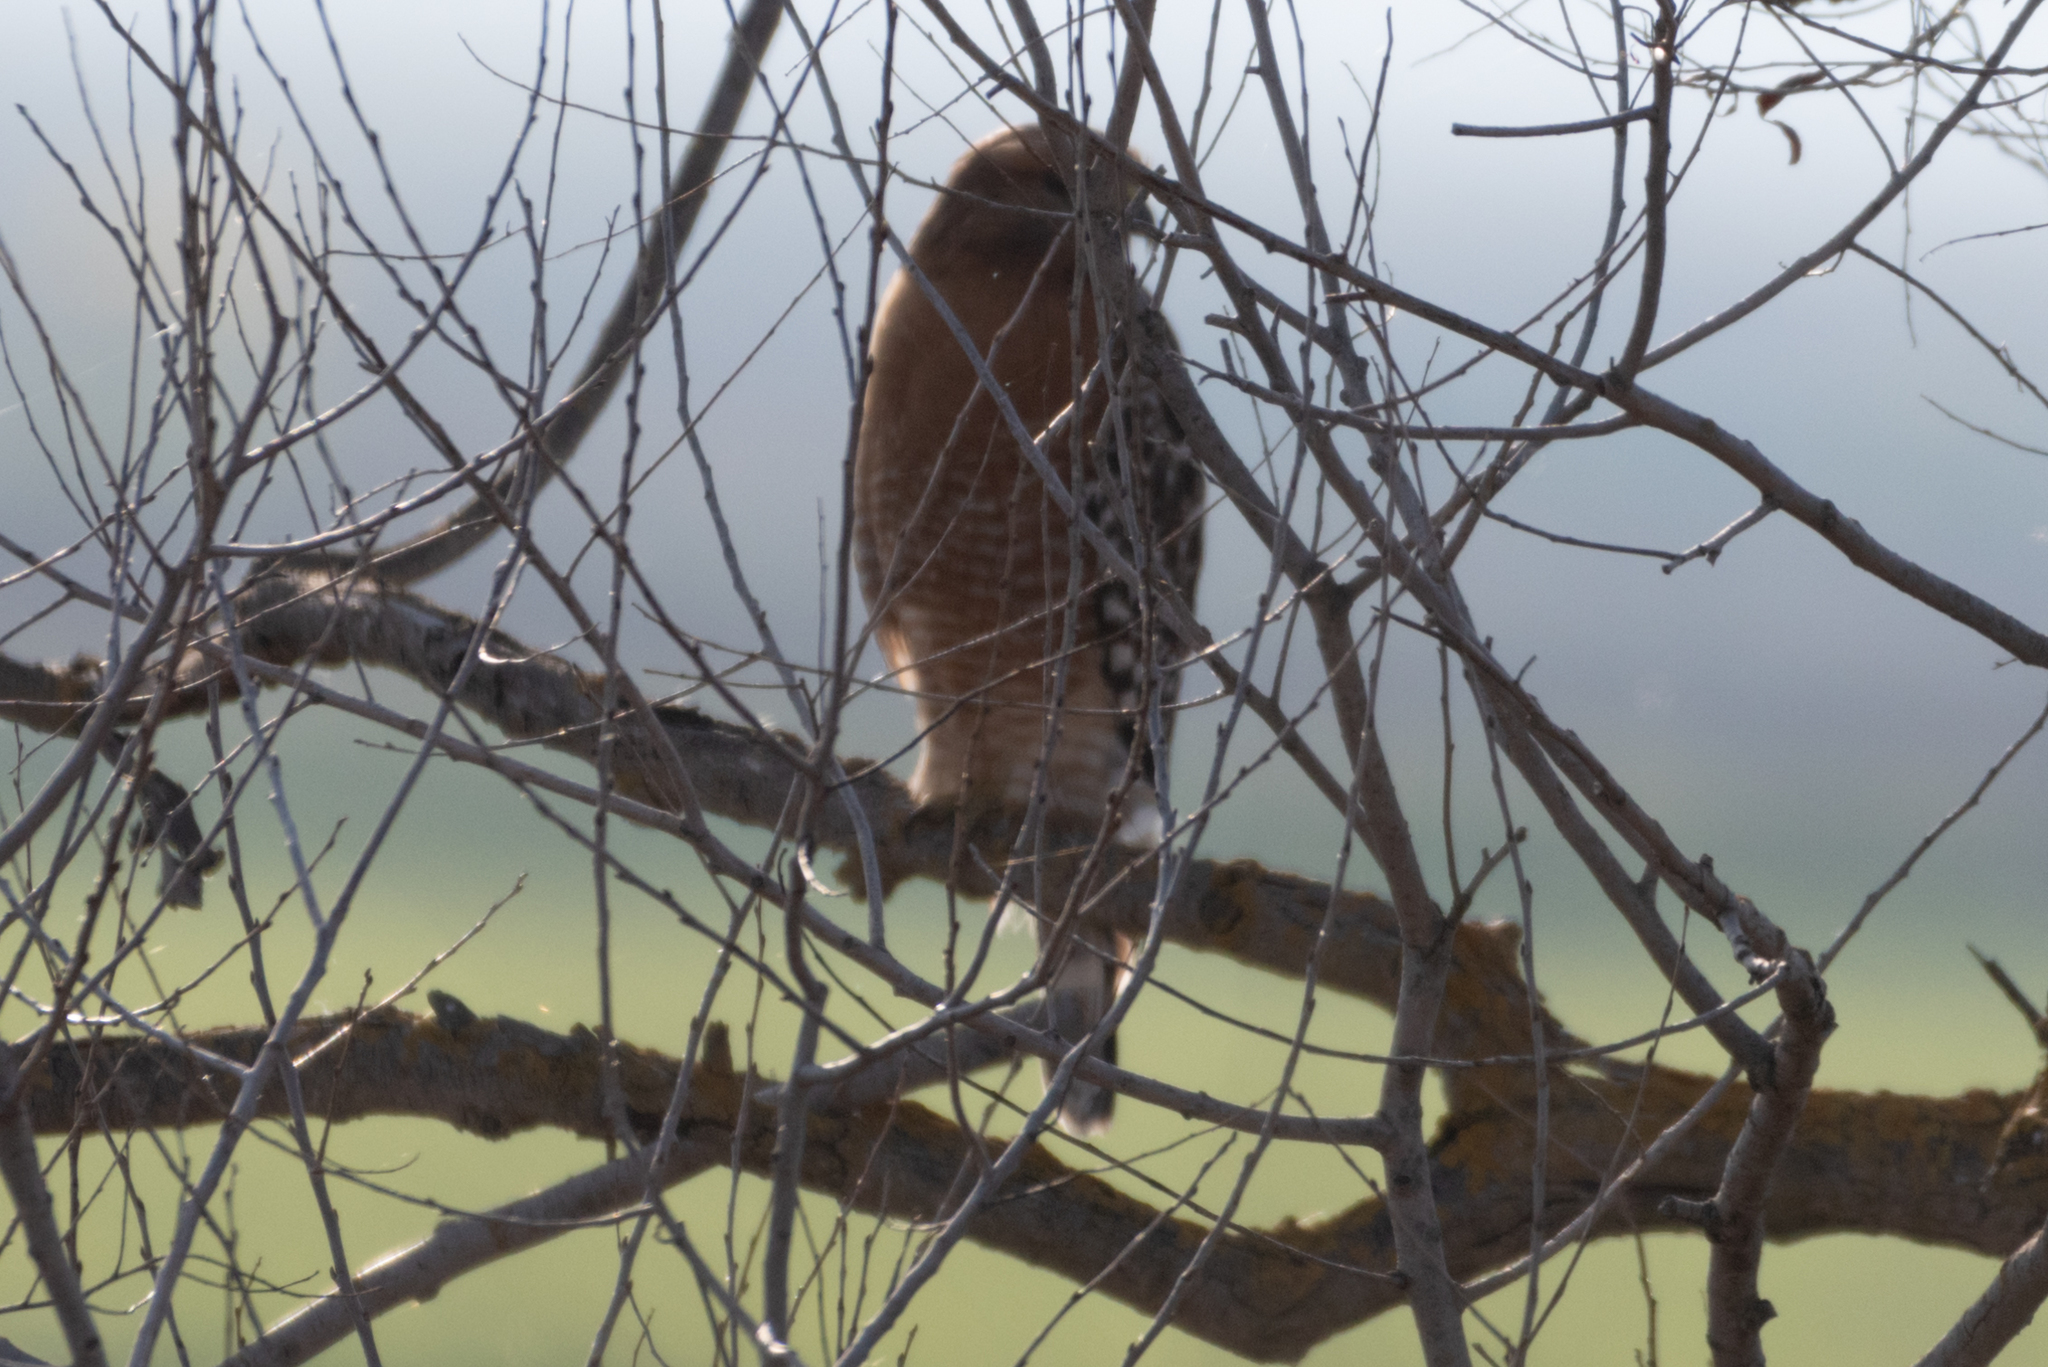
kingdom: Animalia
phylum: Chordata
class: Aves
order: Accipitriformes
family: Accipitridae
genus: Buteo
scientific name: Buteo lineatus
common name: Red-shouldered hawk
